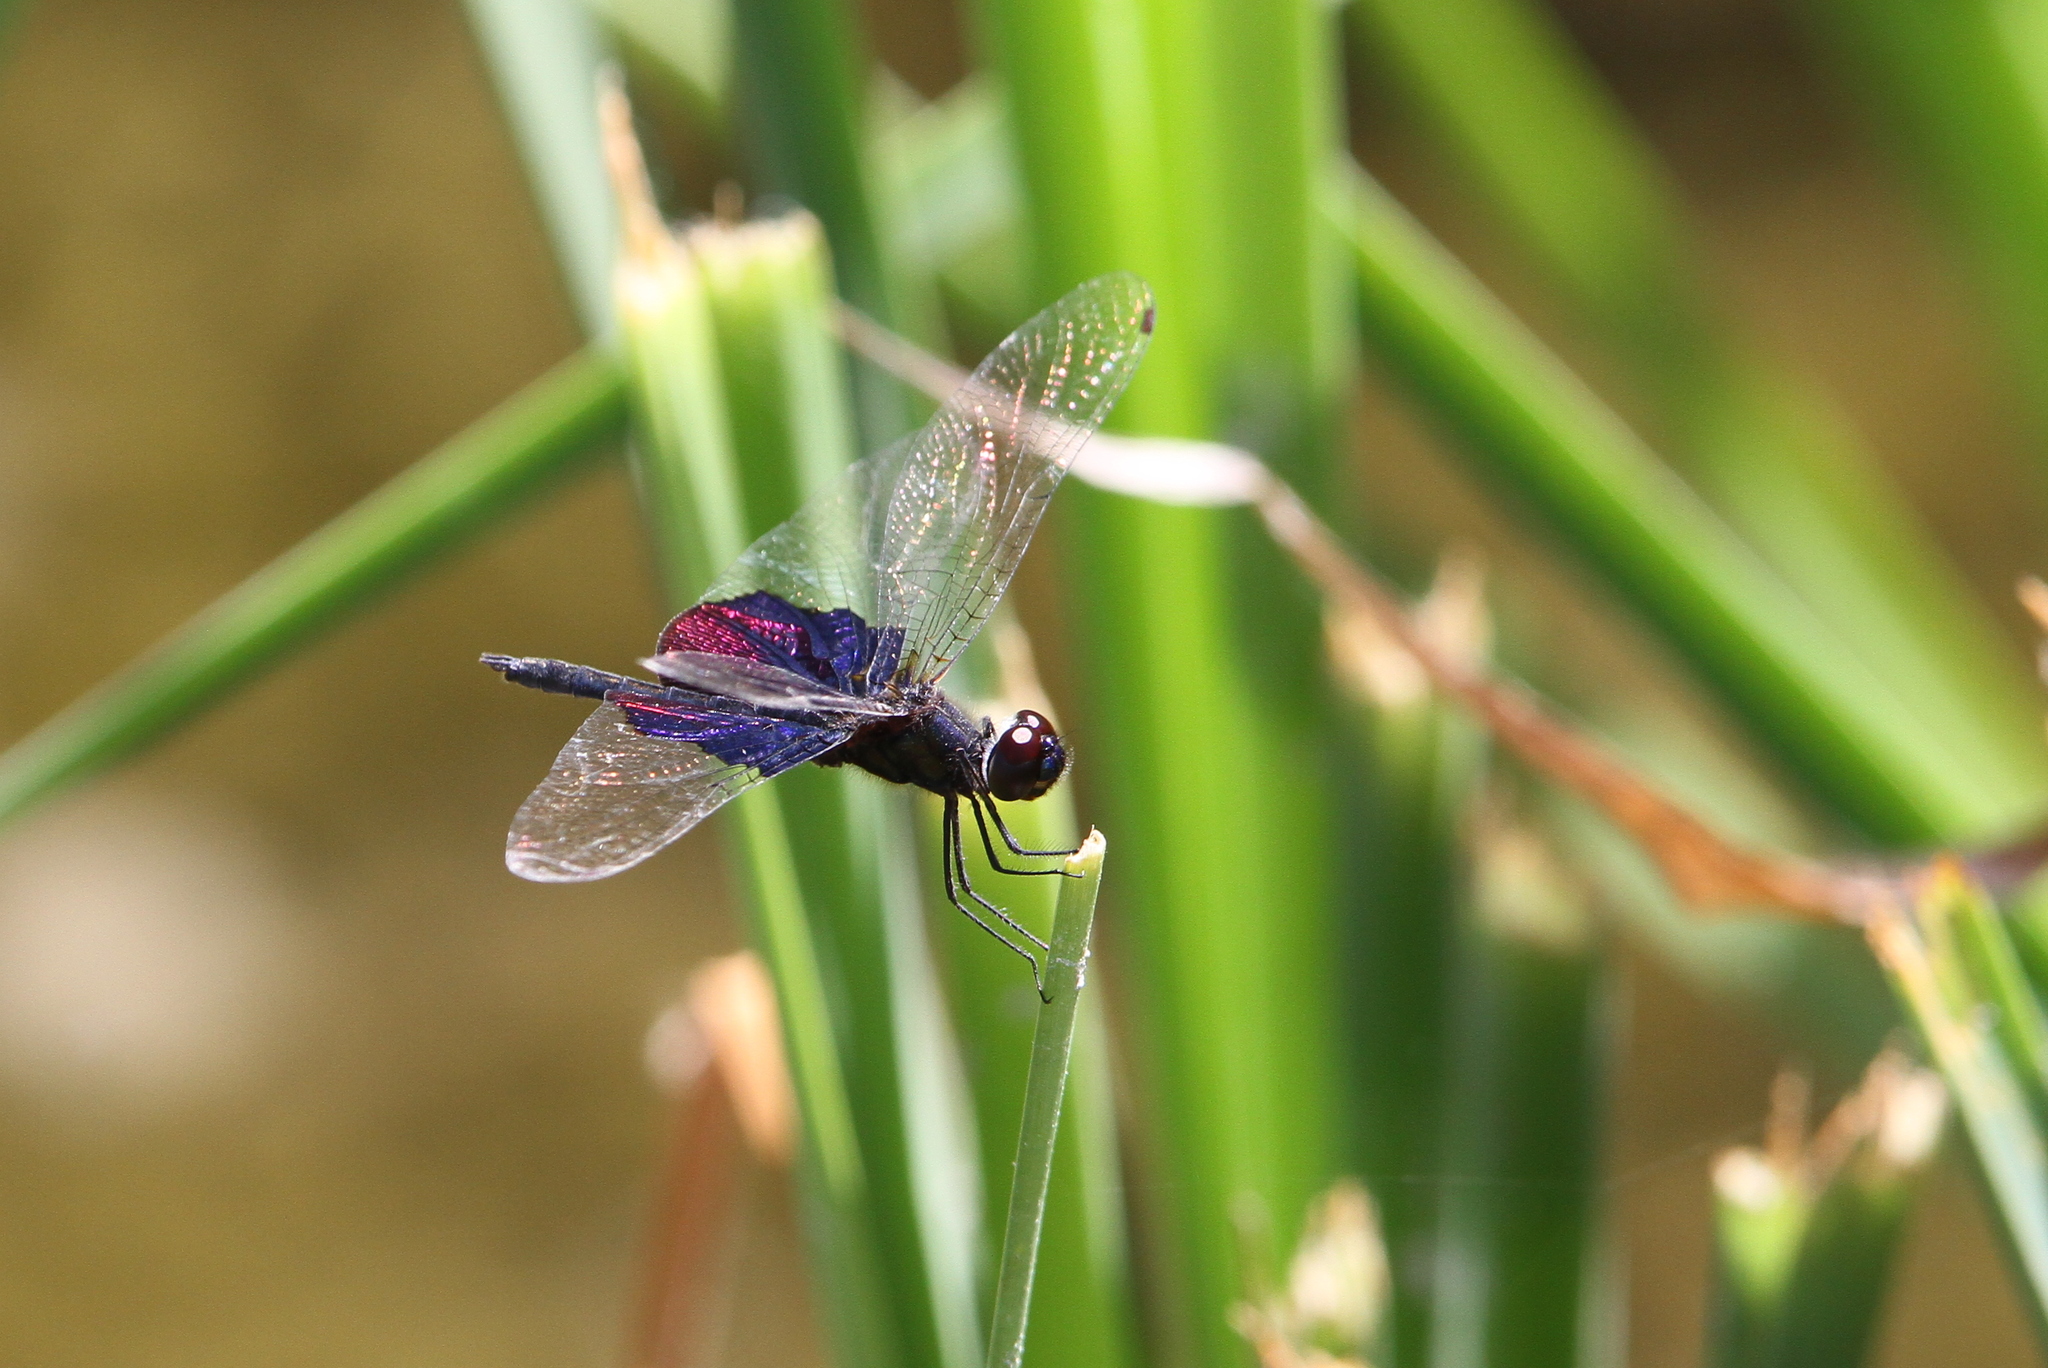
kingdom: Animalia
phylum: Arthropoda
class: Insecta
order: Odonata
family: Libellulidae
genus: Rhyothemis
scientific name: Rhyothemis semihyalina
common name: Phantom flutterer
